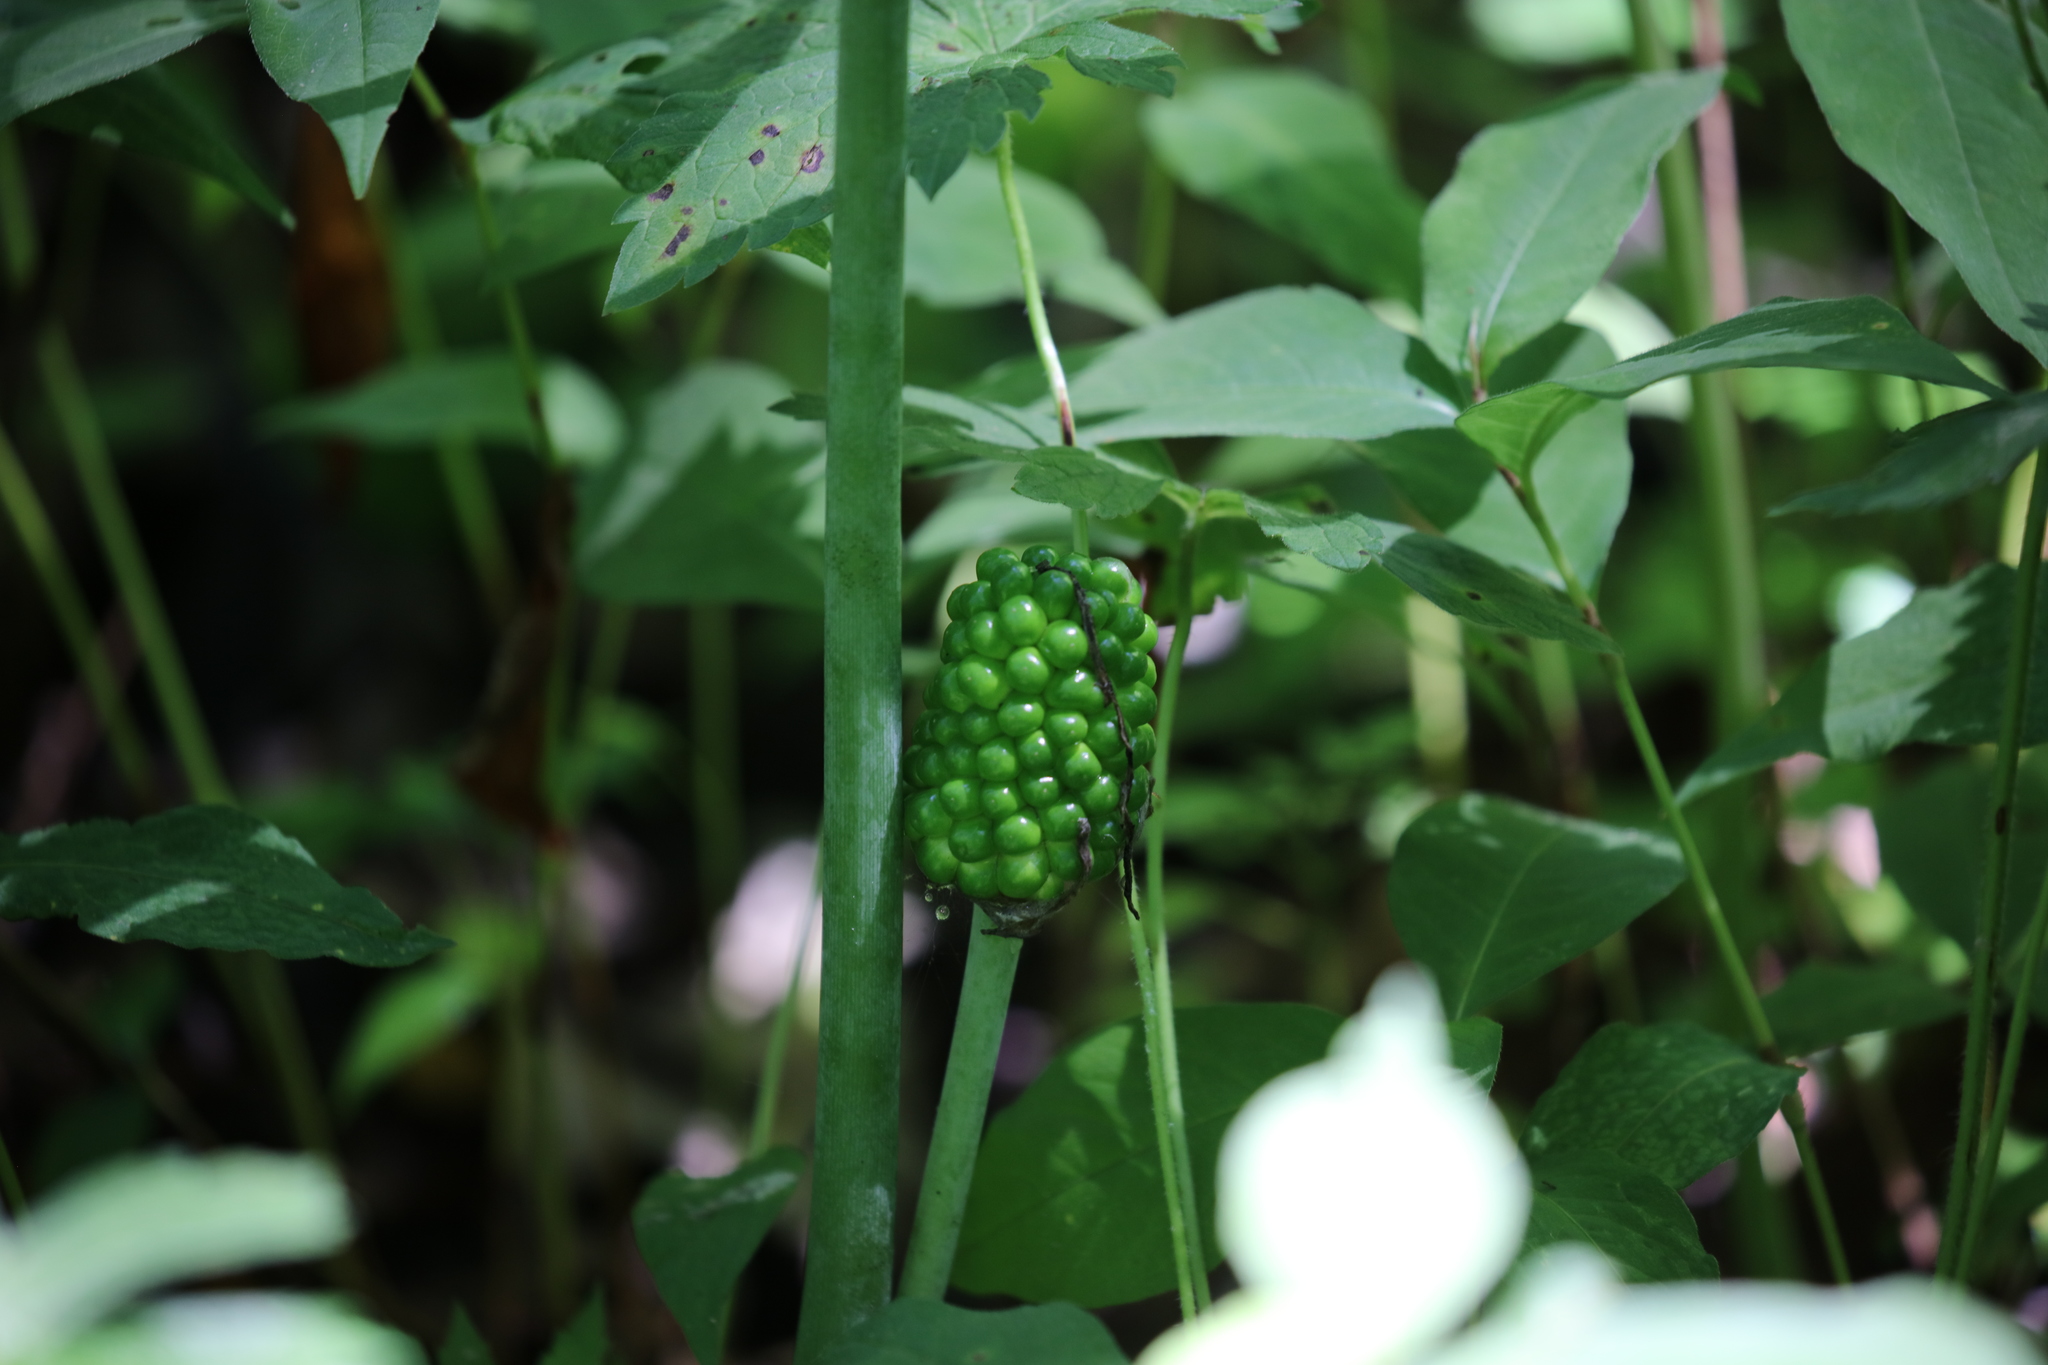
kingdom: Plantae
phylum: Tracheophyta
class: Liliopsida
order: Alismatales
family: Araceae
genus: Arisaema
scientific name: Arisaema dracontium
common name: Dragon-arum
